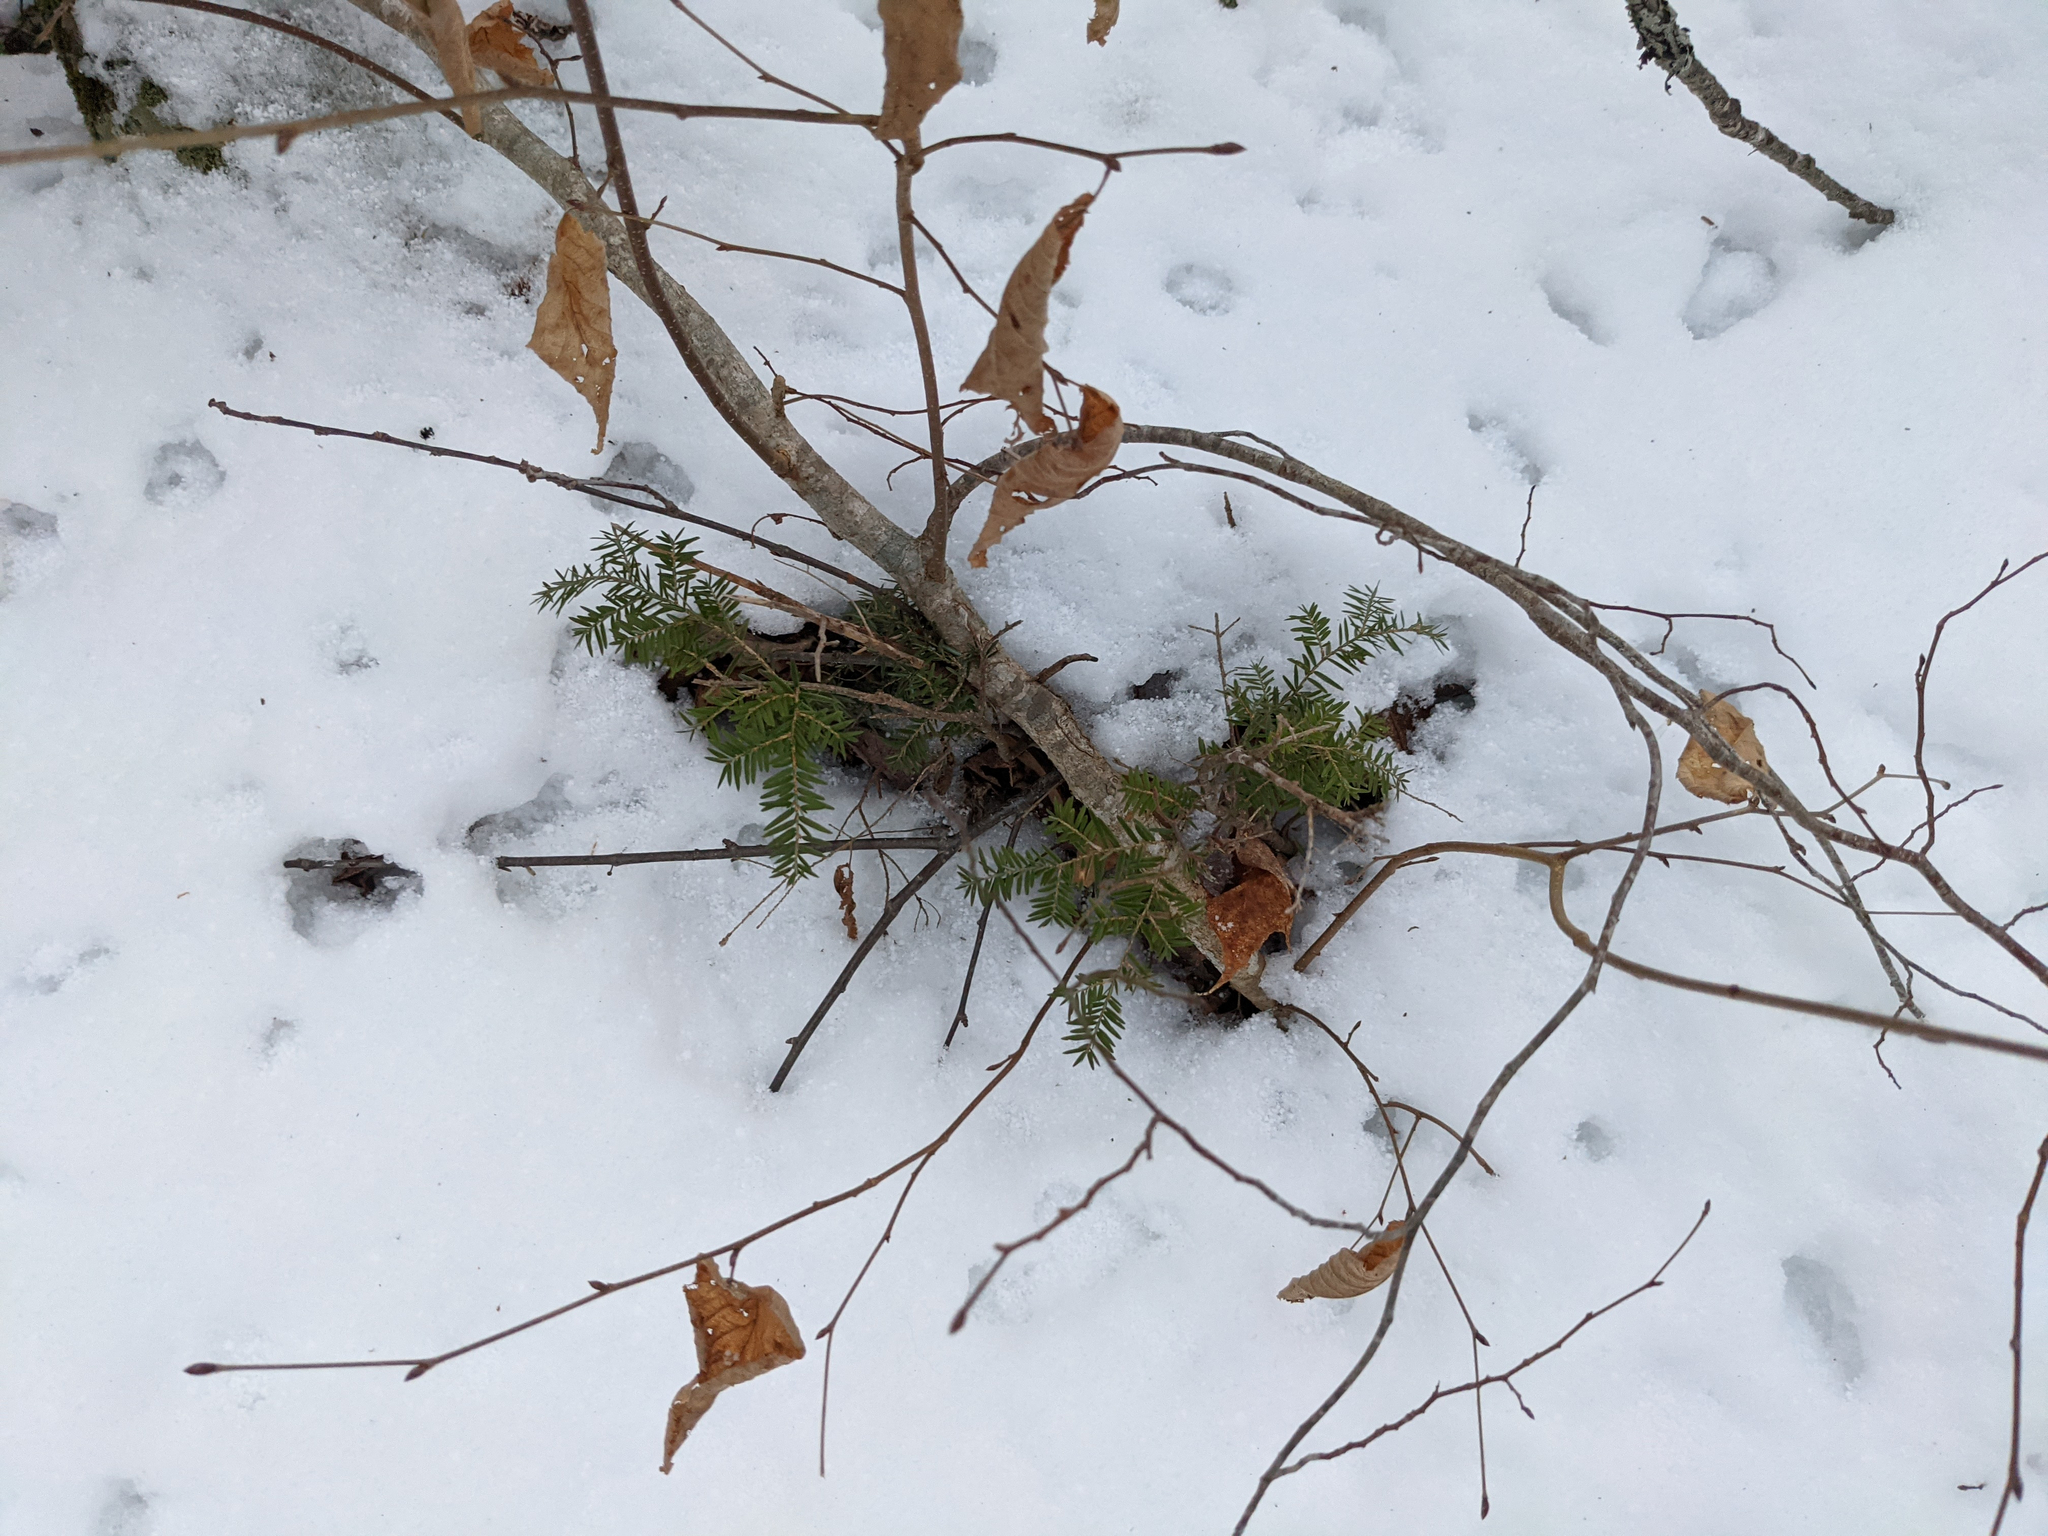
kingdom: Plantae
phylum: Tracheophyta
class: Pinopsida
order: Pinales
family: Pinaceae
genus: Tsuga
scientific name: Tsuga canadensis
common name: Eastern hemlock
